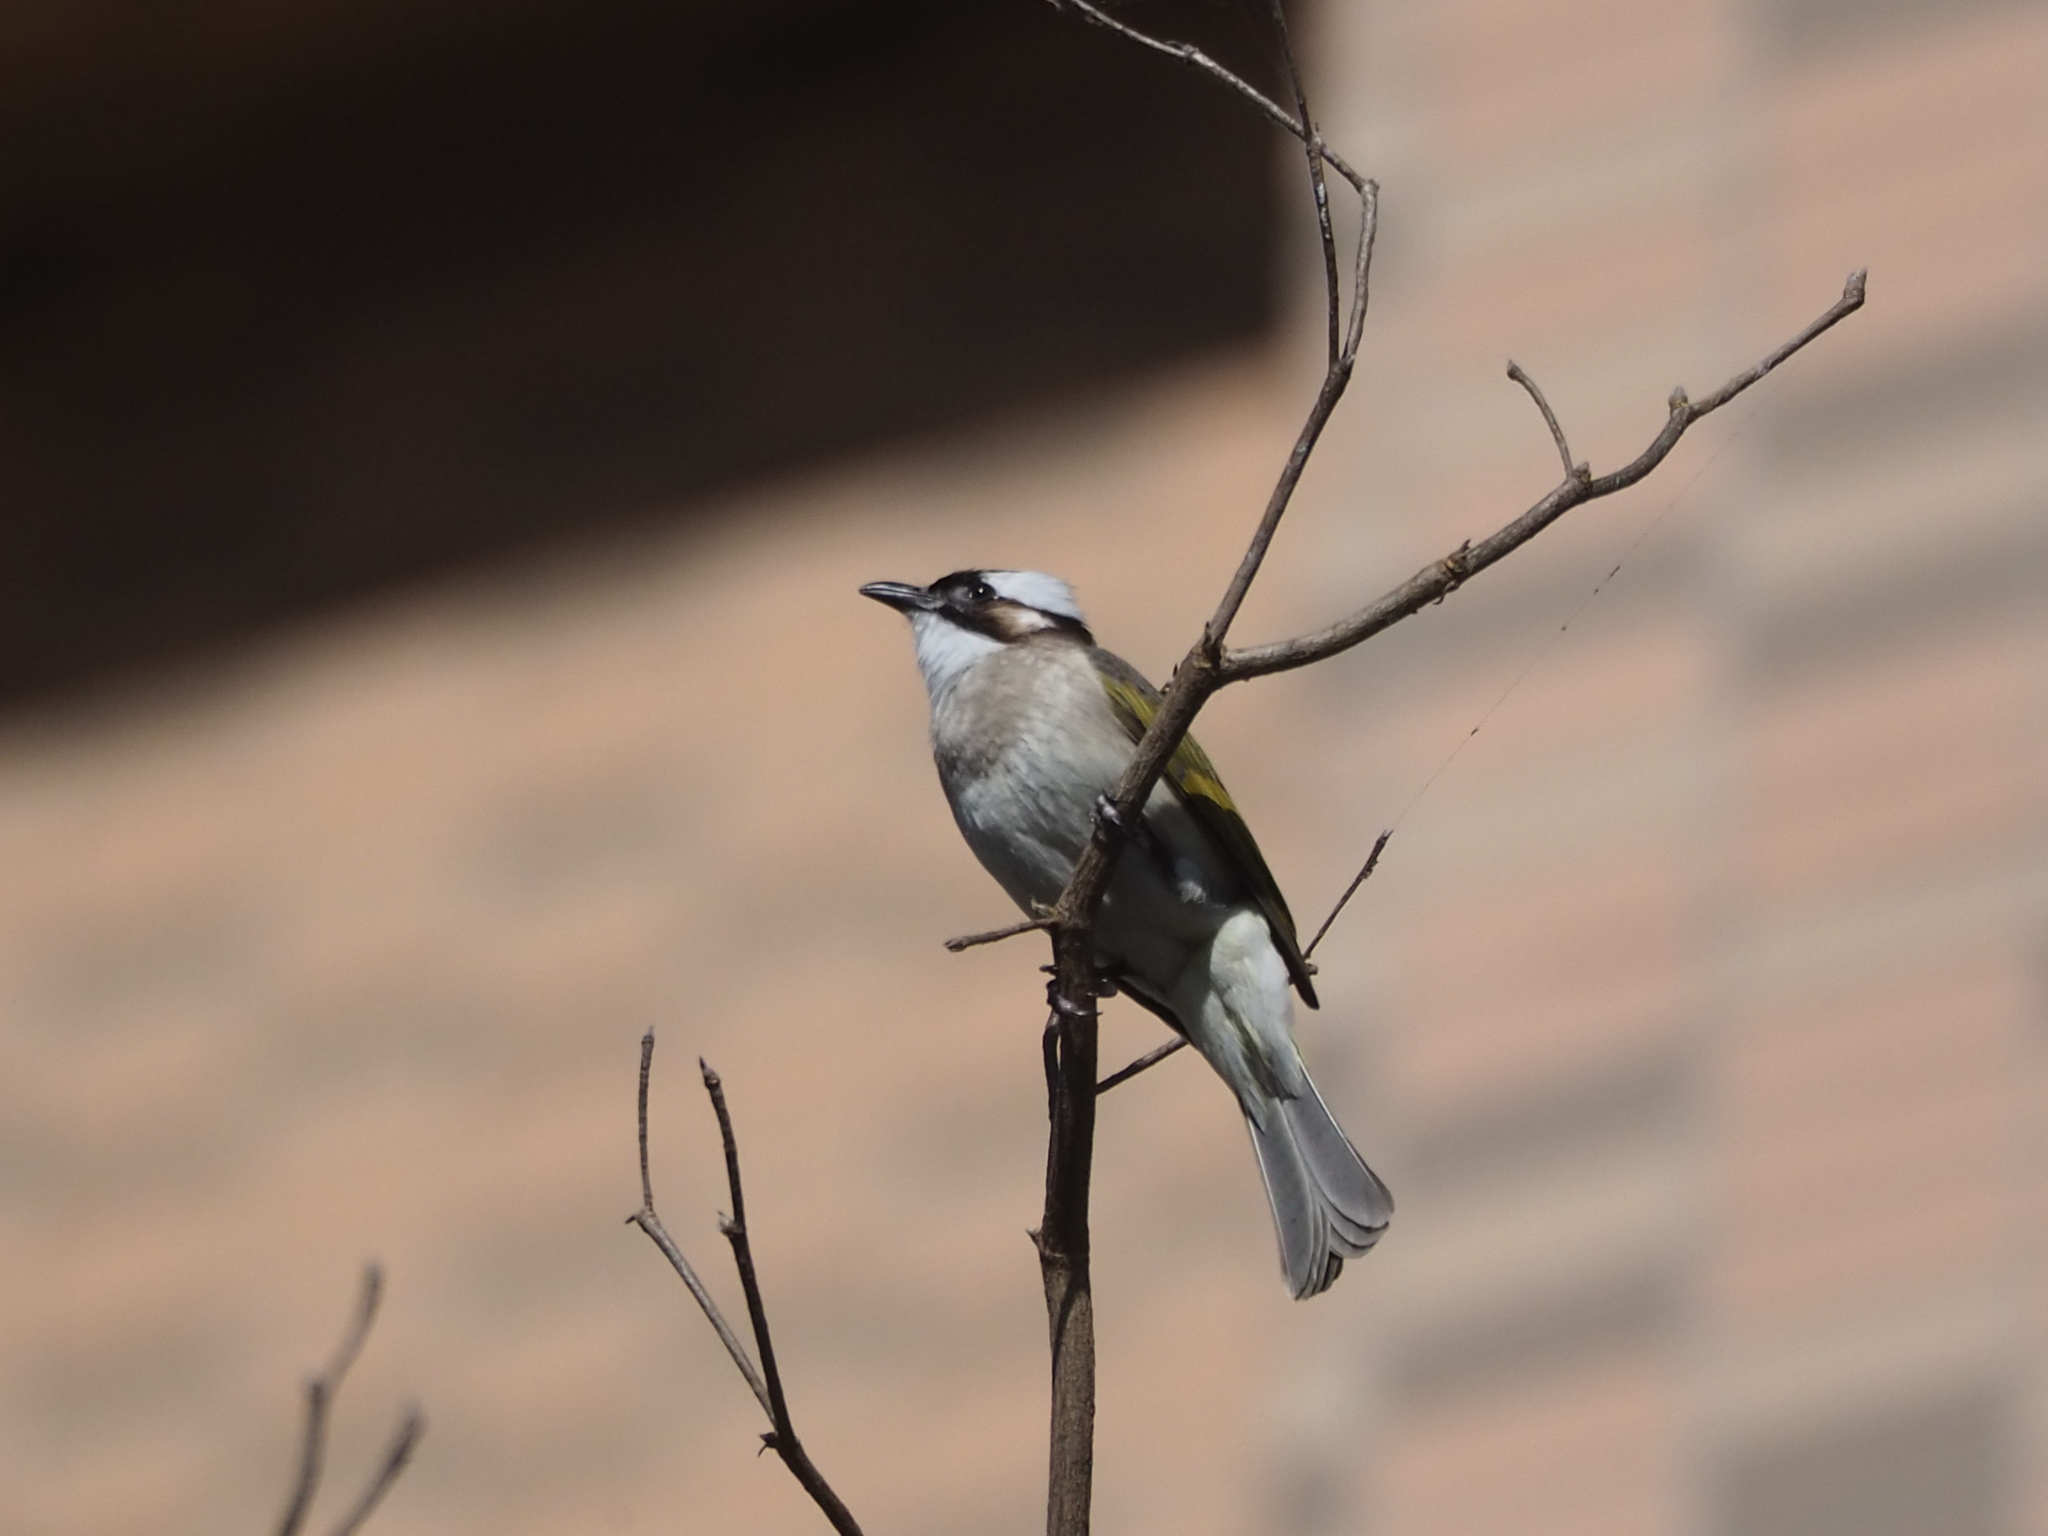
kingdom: Animalia
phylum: Chordata
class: Aves
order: Passeriformes
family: Pycnonotidae
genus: Pycnonotus
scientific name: Pycnonotus sinensis
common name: Light-vented bulbul
